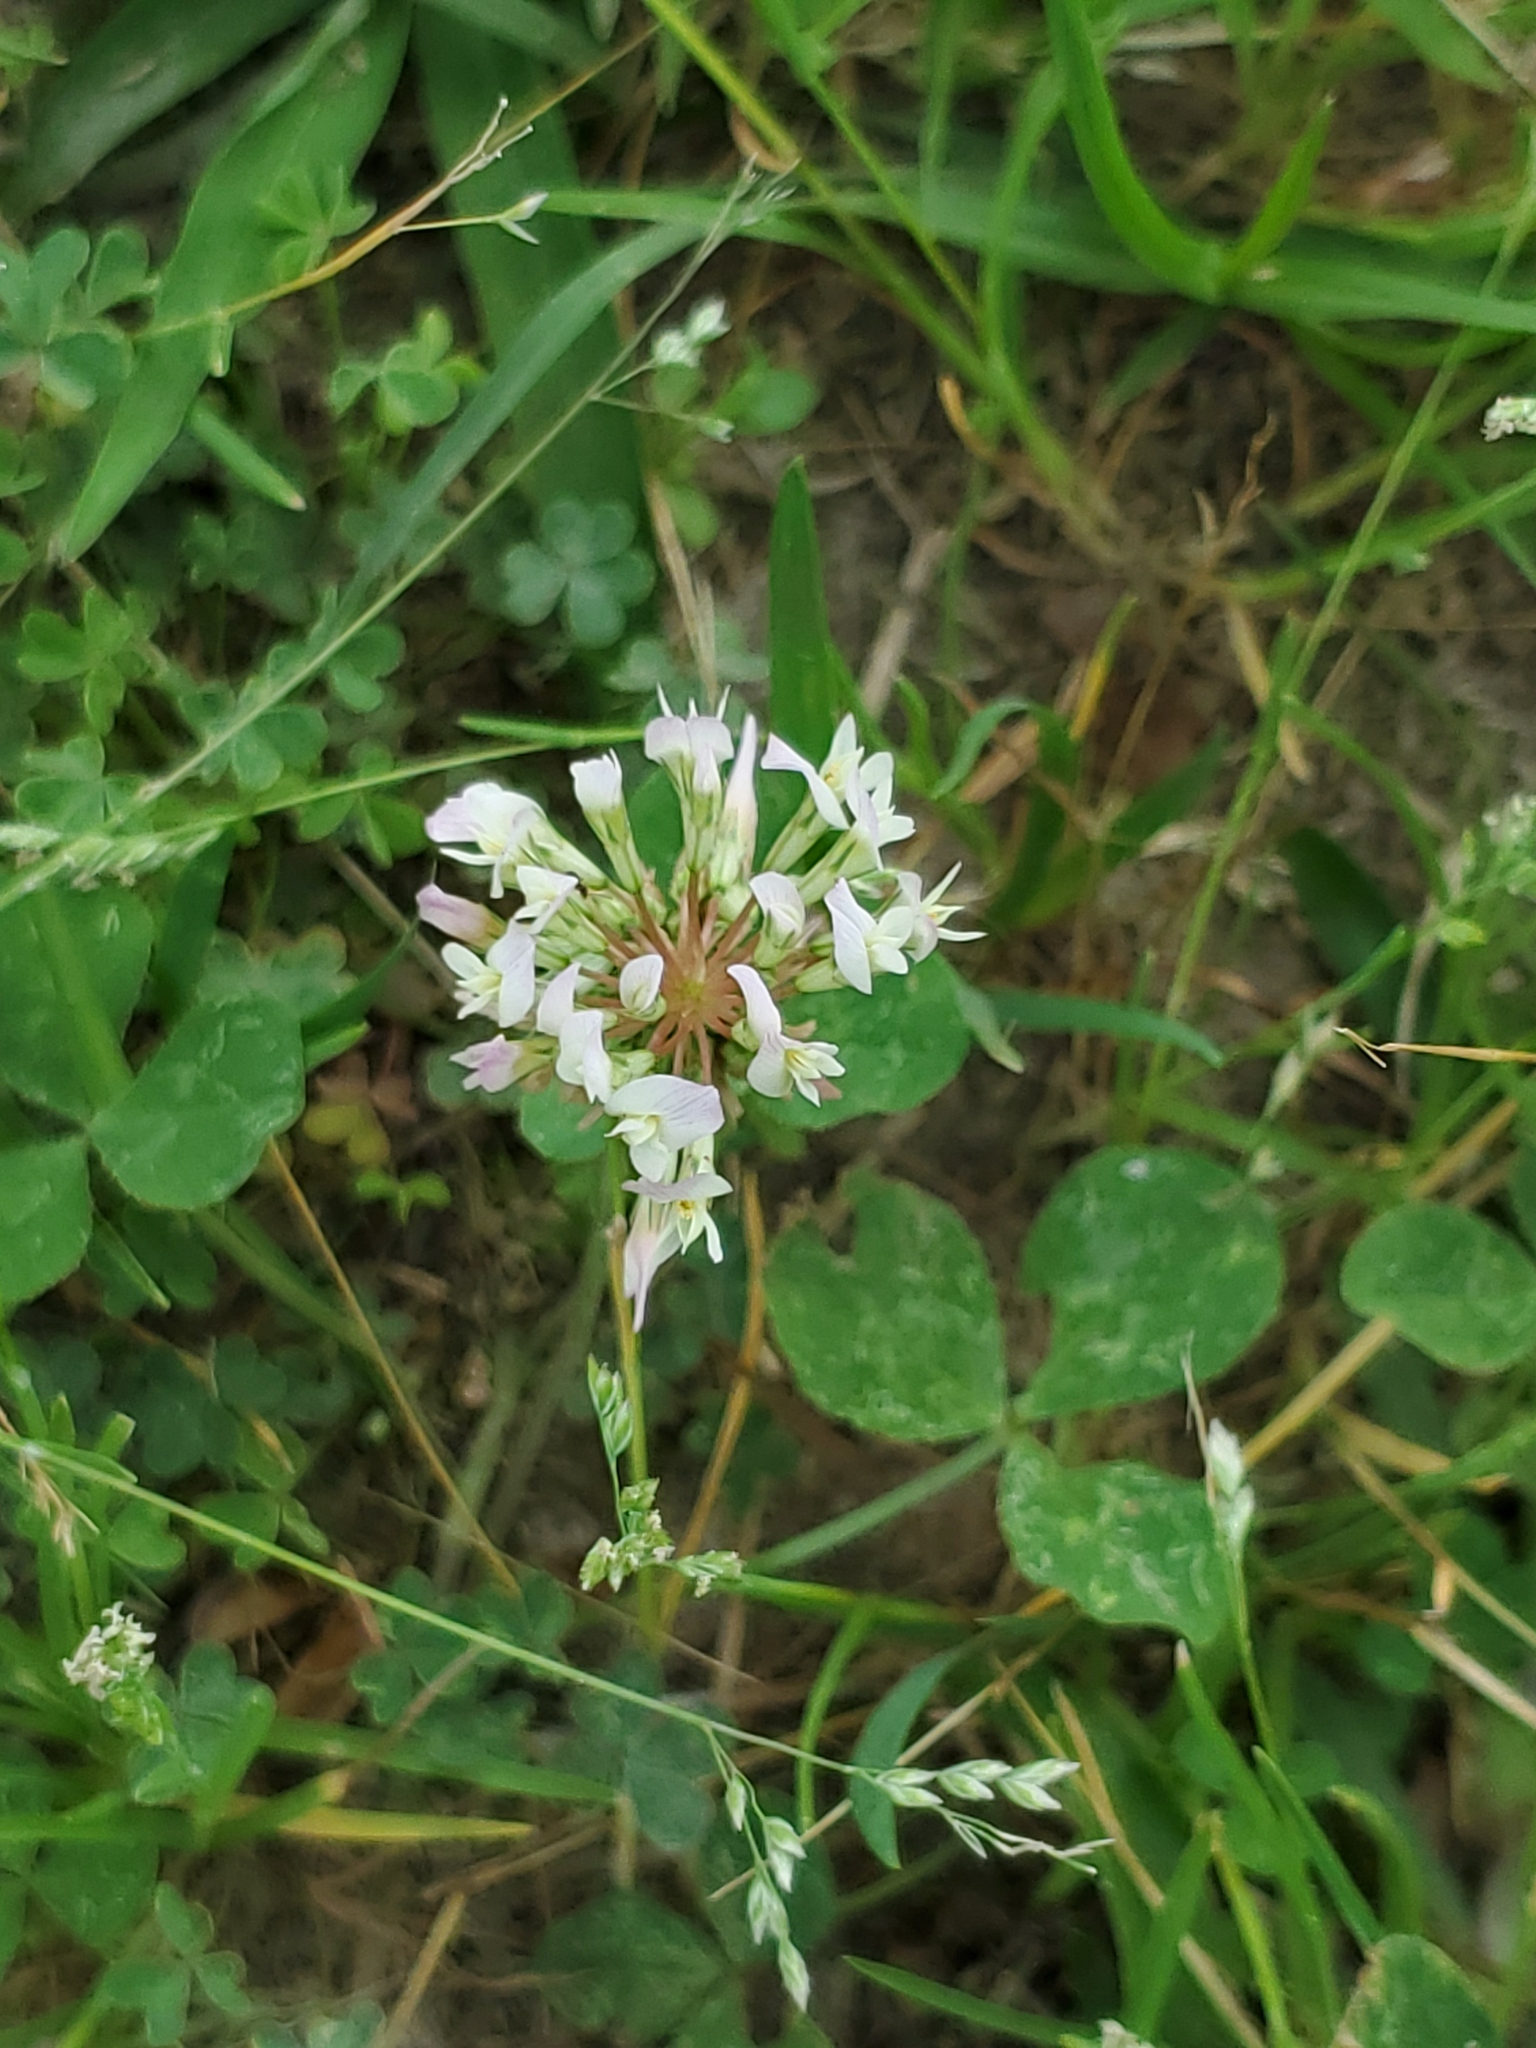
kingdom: Plantae
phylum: Tracheophyta
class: Magnoliopsida
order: Fabales
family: Fabaceae
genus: Trifolium
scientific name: Trifolium repens
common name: White clover
